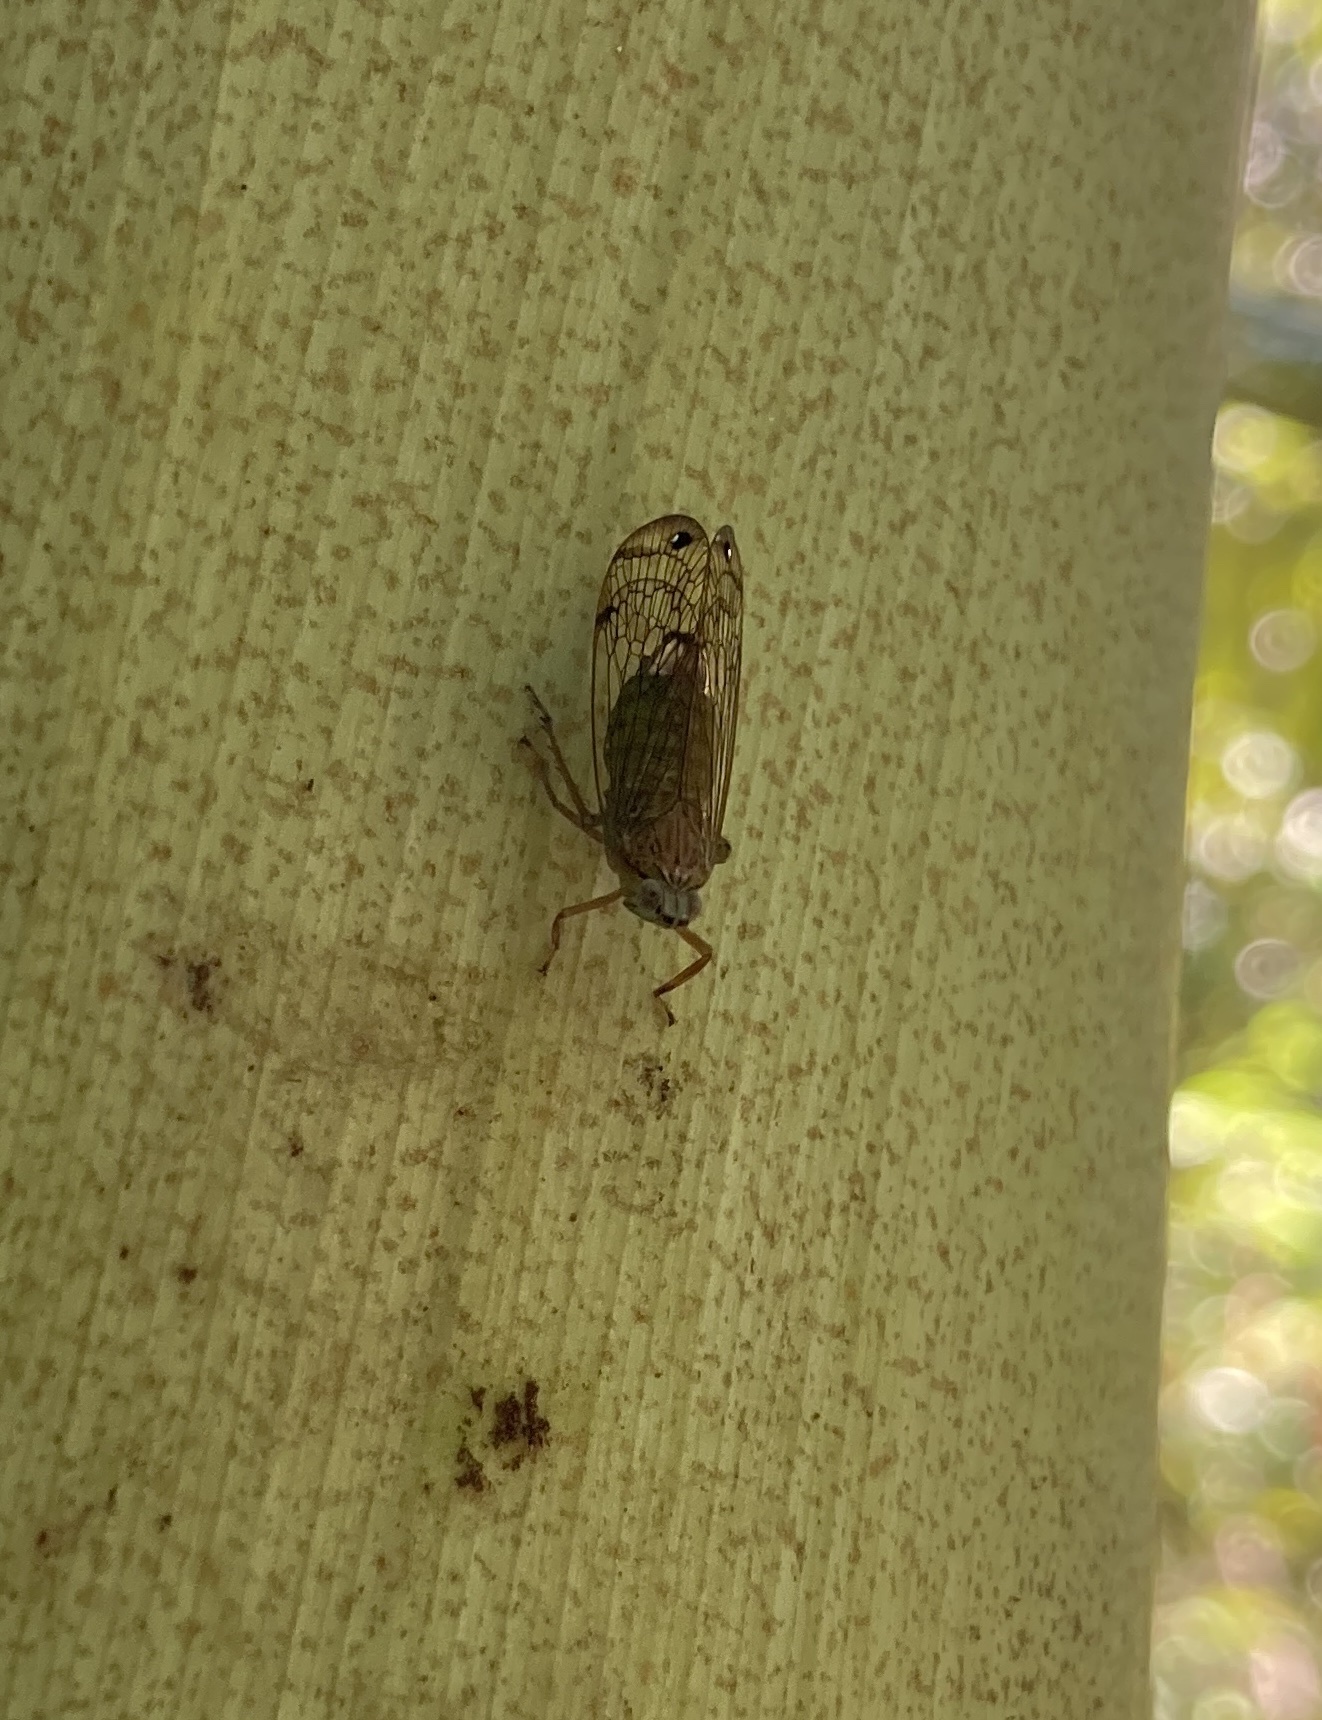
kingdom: Animalia
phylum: Arthropoda
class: Insecta
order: Hemiptera
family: Lophopidae
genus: Magia
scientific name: Magia subocellata
